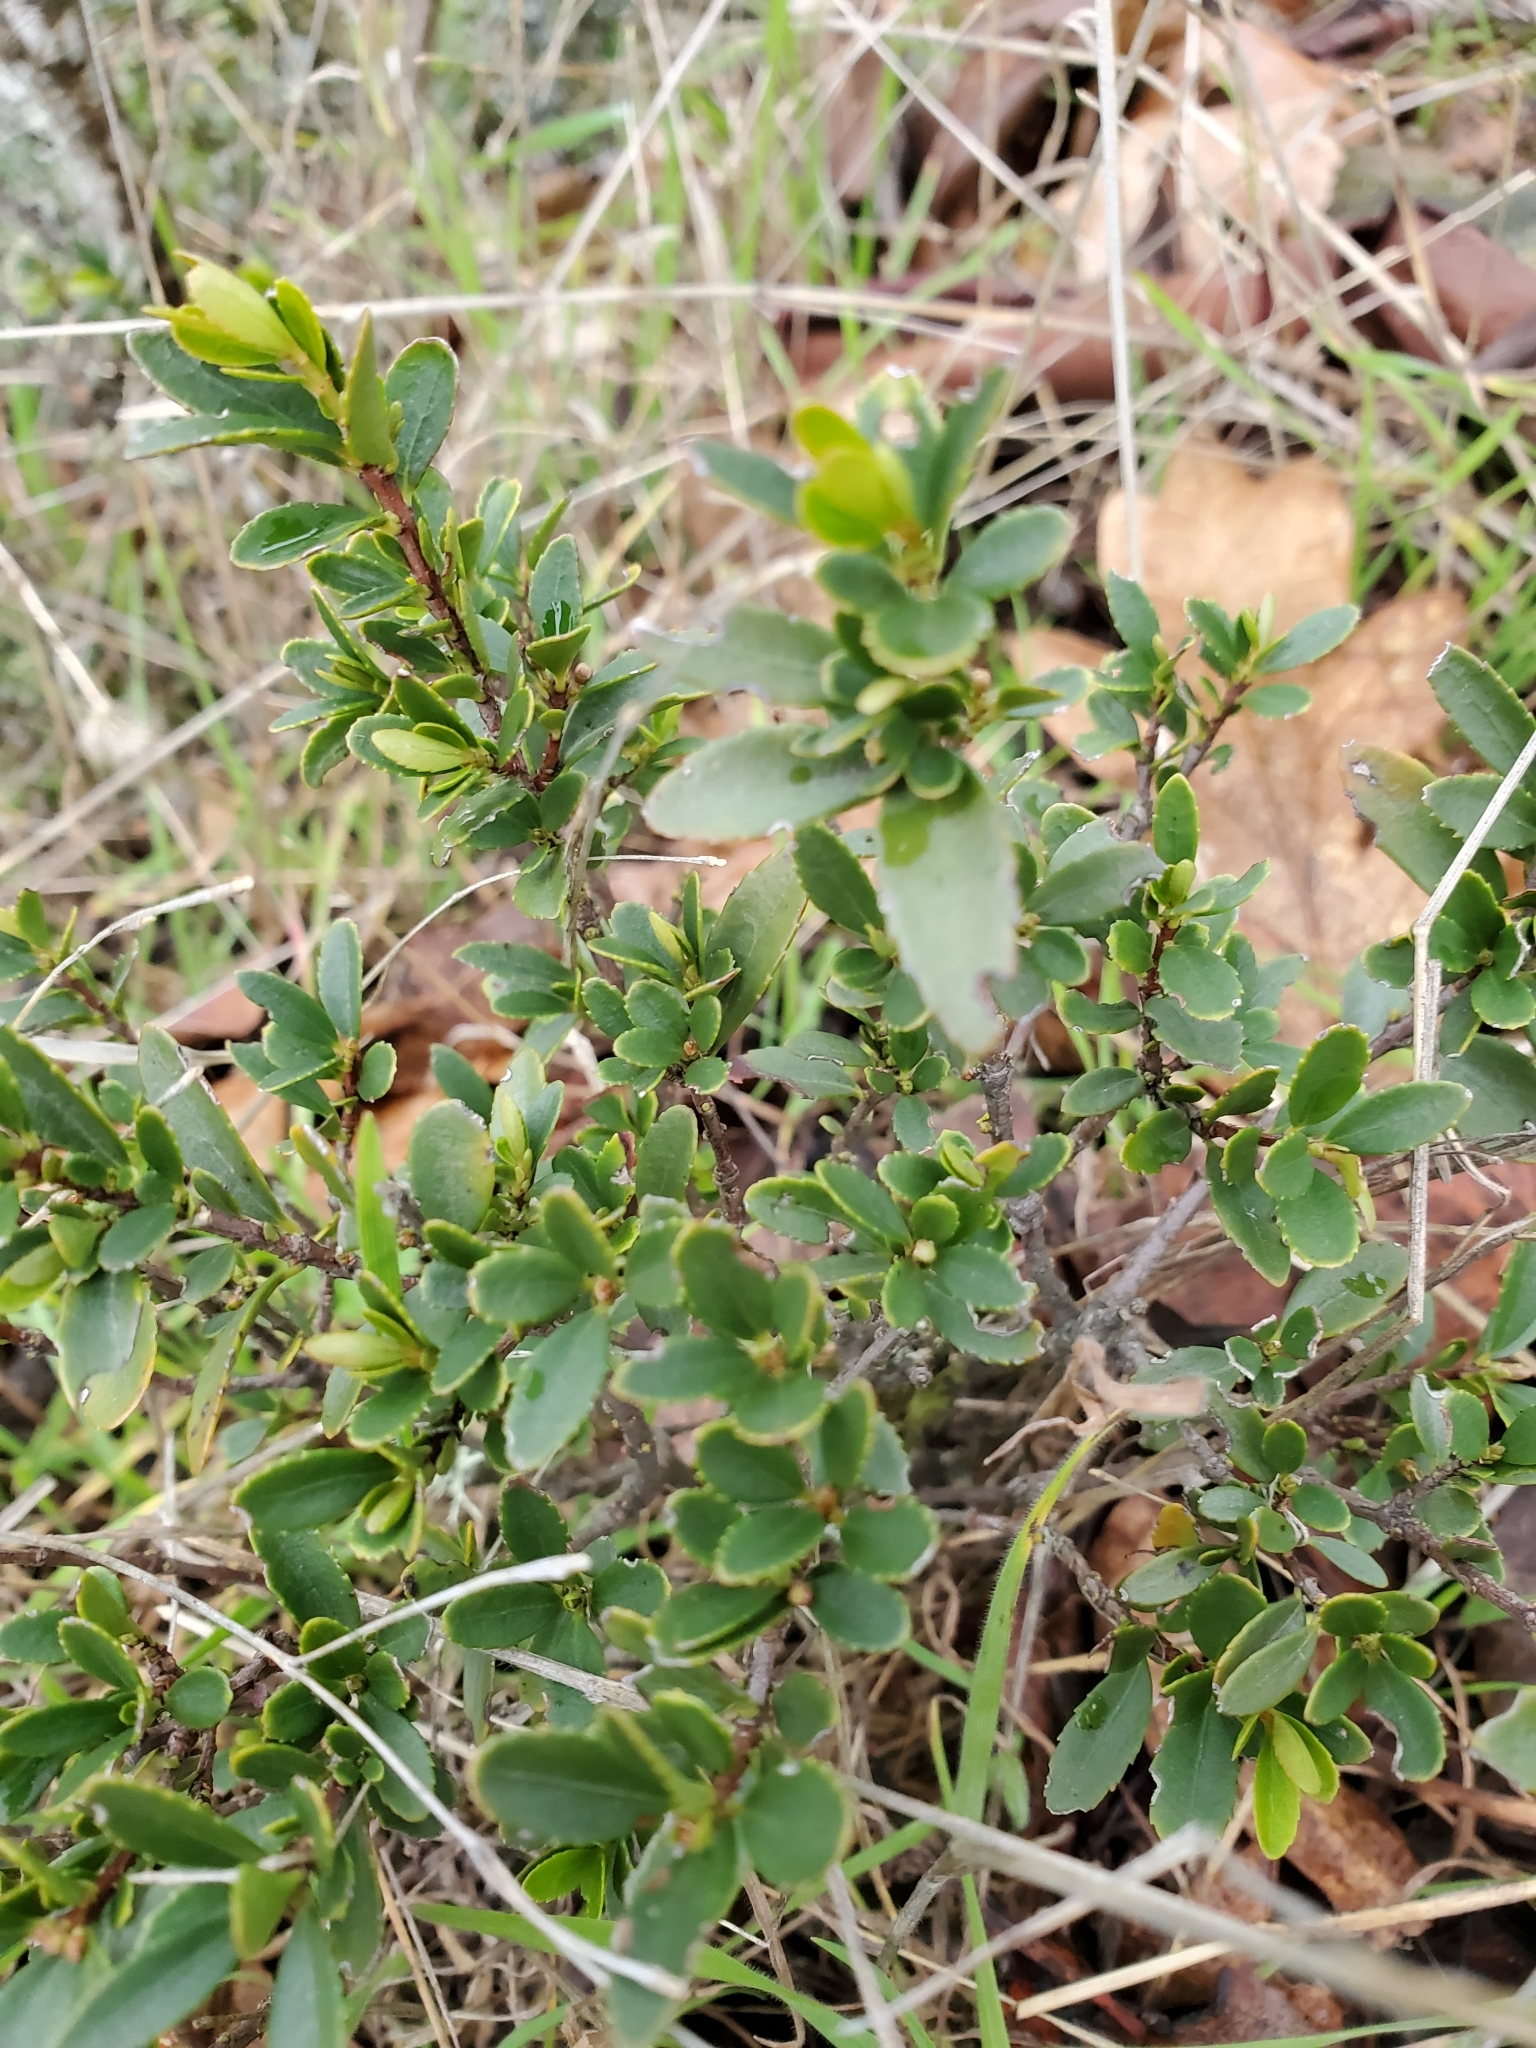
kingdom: Plantae
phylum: Tracheophyta
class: Magnoliopsida
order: Celastrales
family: Celastraceae
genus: Paxistima
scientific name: Paxistima myrsinites
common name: Mountain-lover
